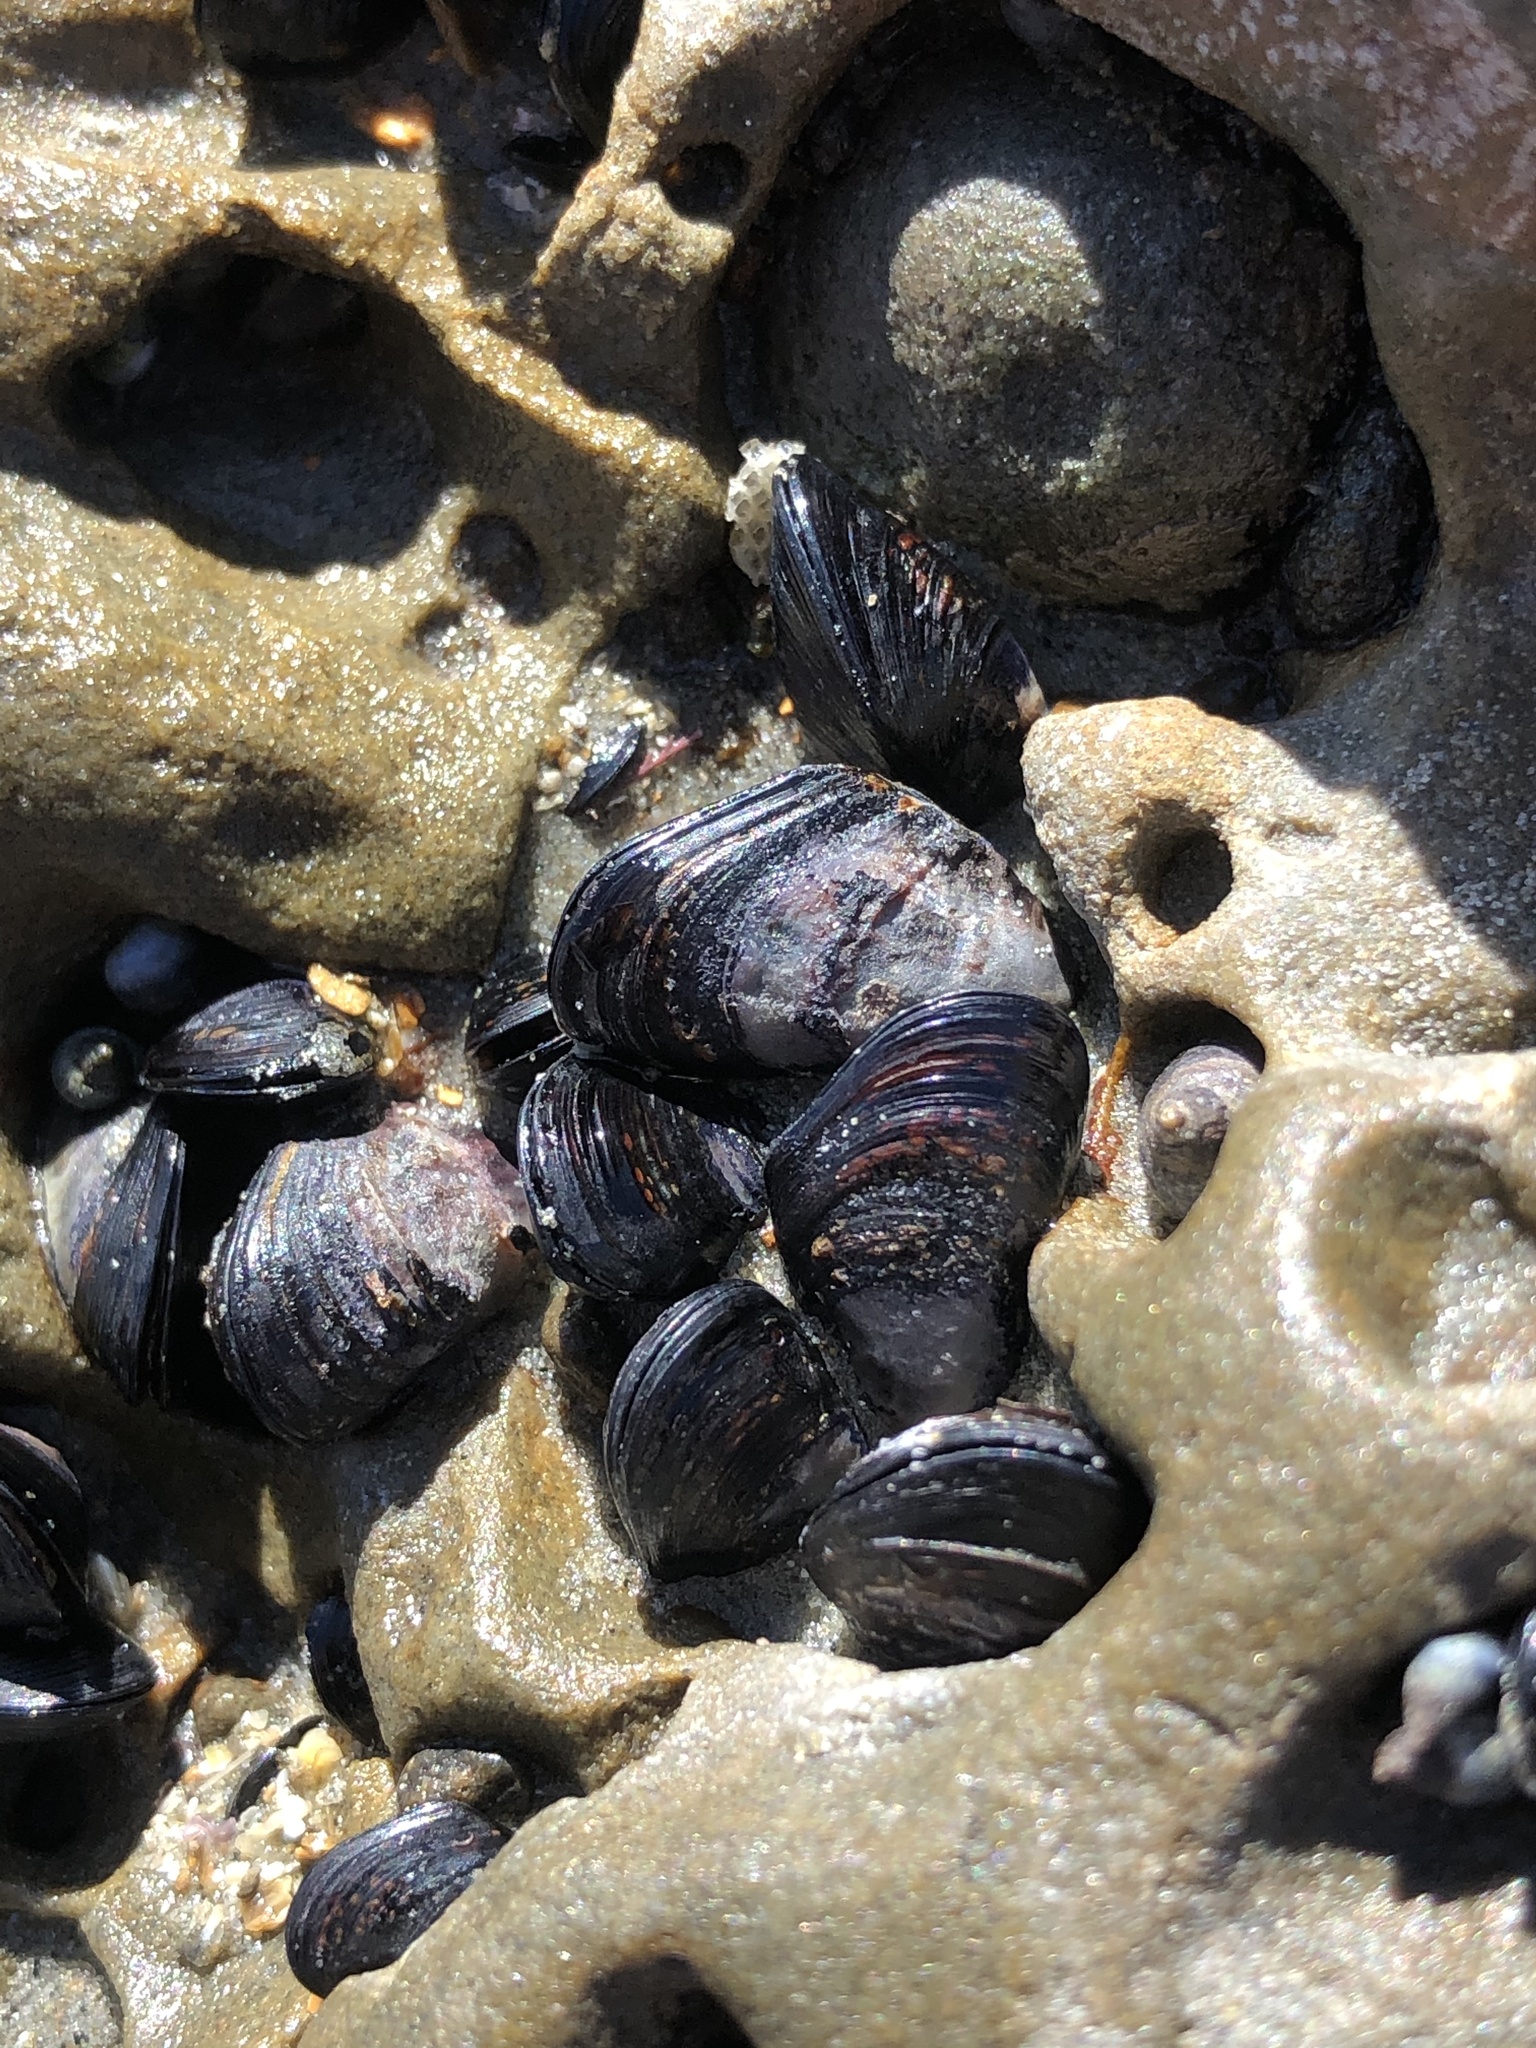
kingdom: Animalia
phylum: Mollusca
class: Bivalvia
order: Mytilida
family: Mytilidae
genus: Xenostrobus
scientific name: Xenostrobus neozelanicus
